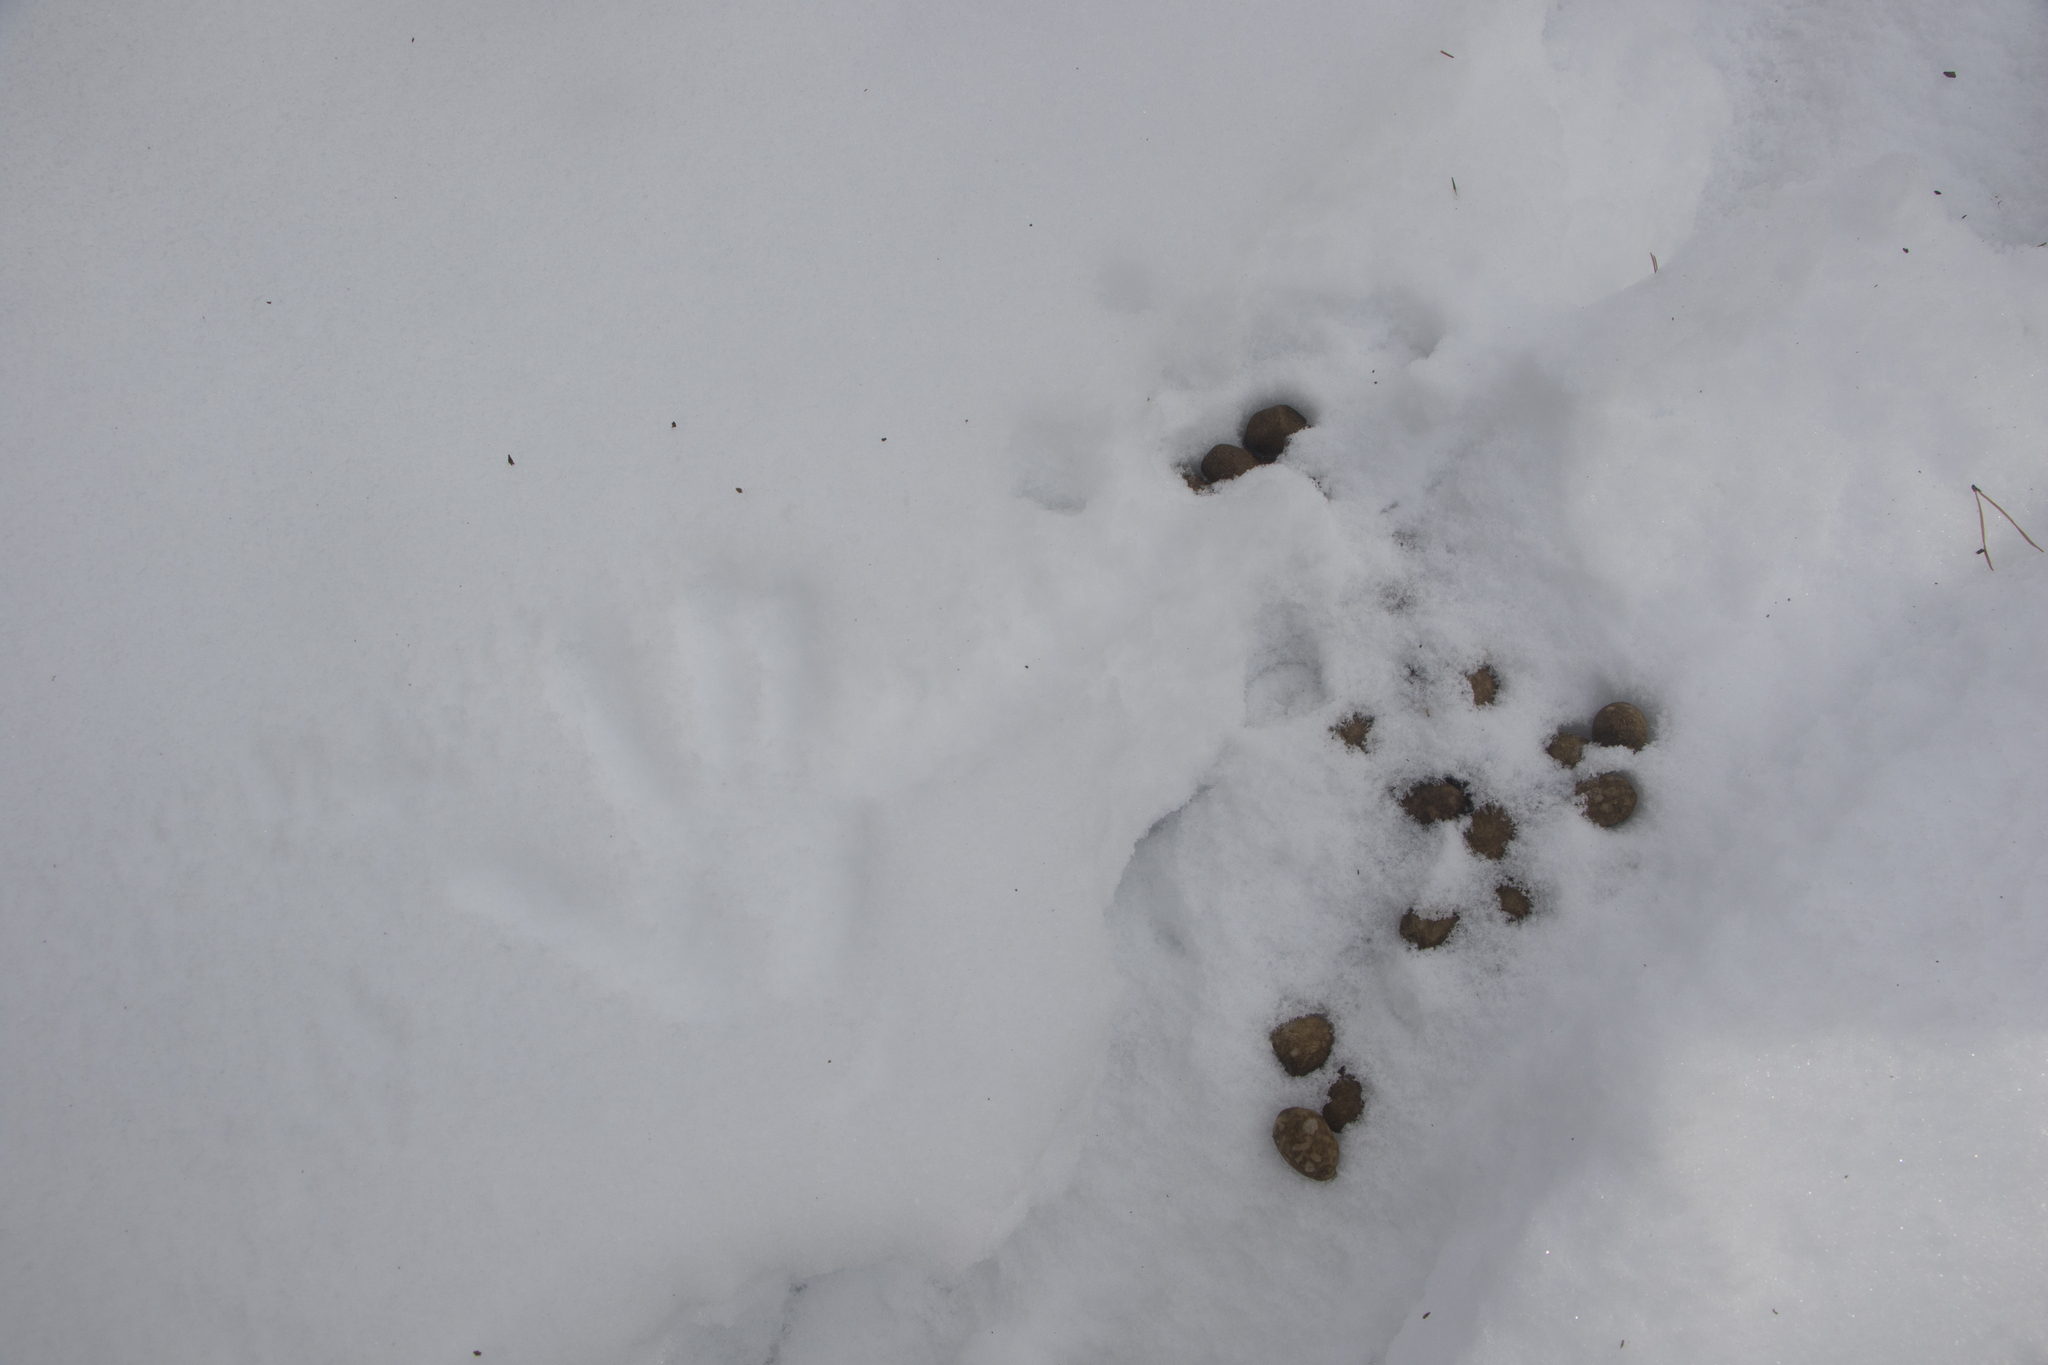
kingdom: Animalia
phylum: Chordata
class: Mammalia
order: Artiodactyla
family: Cervidae
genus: Alces
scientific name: Alces alces
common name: Moose
